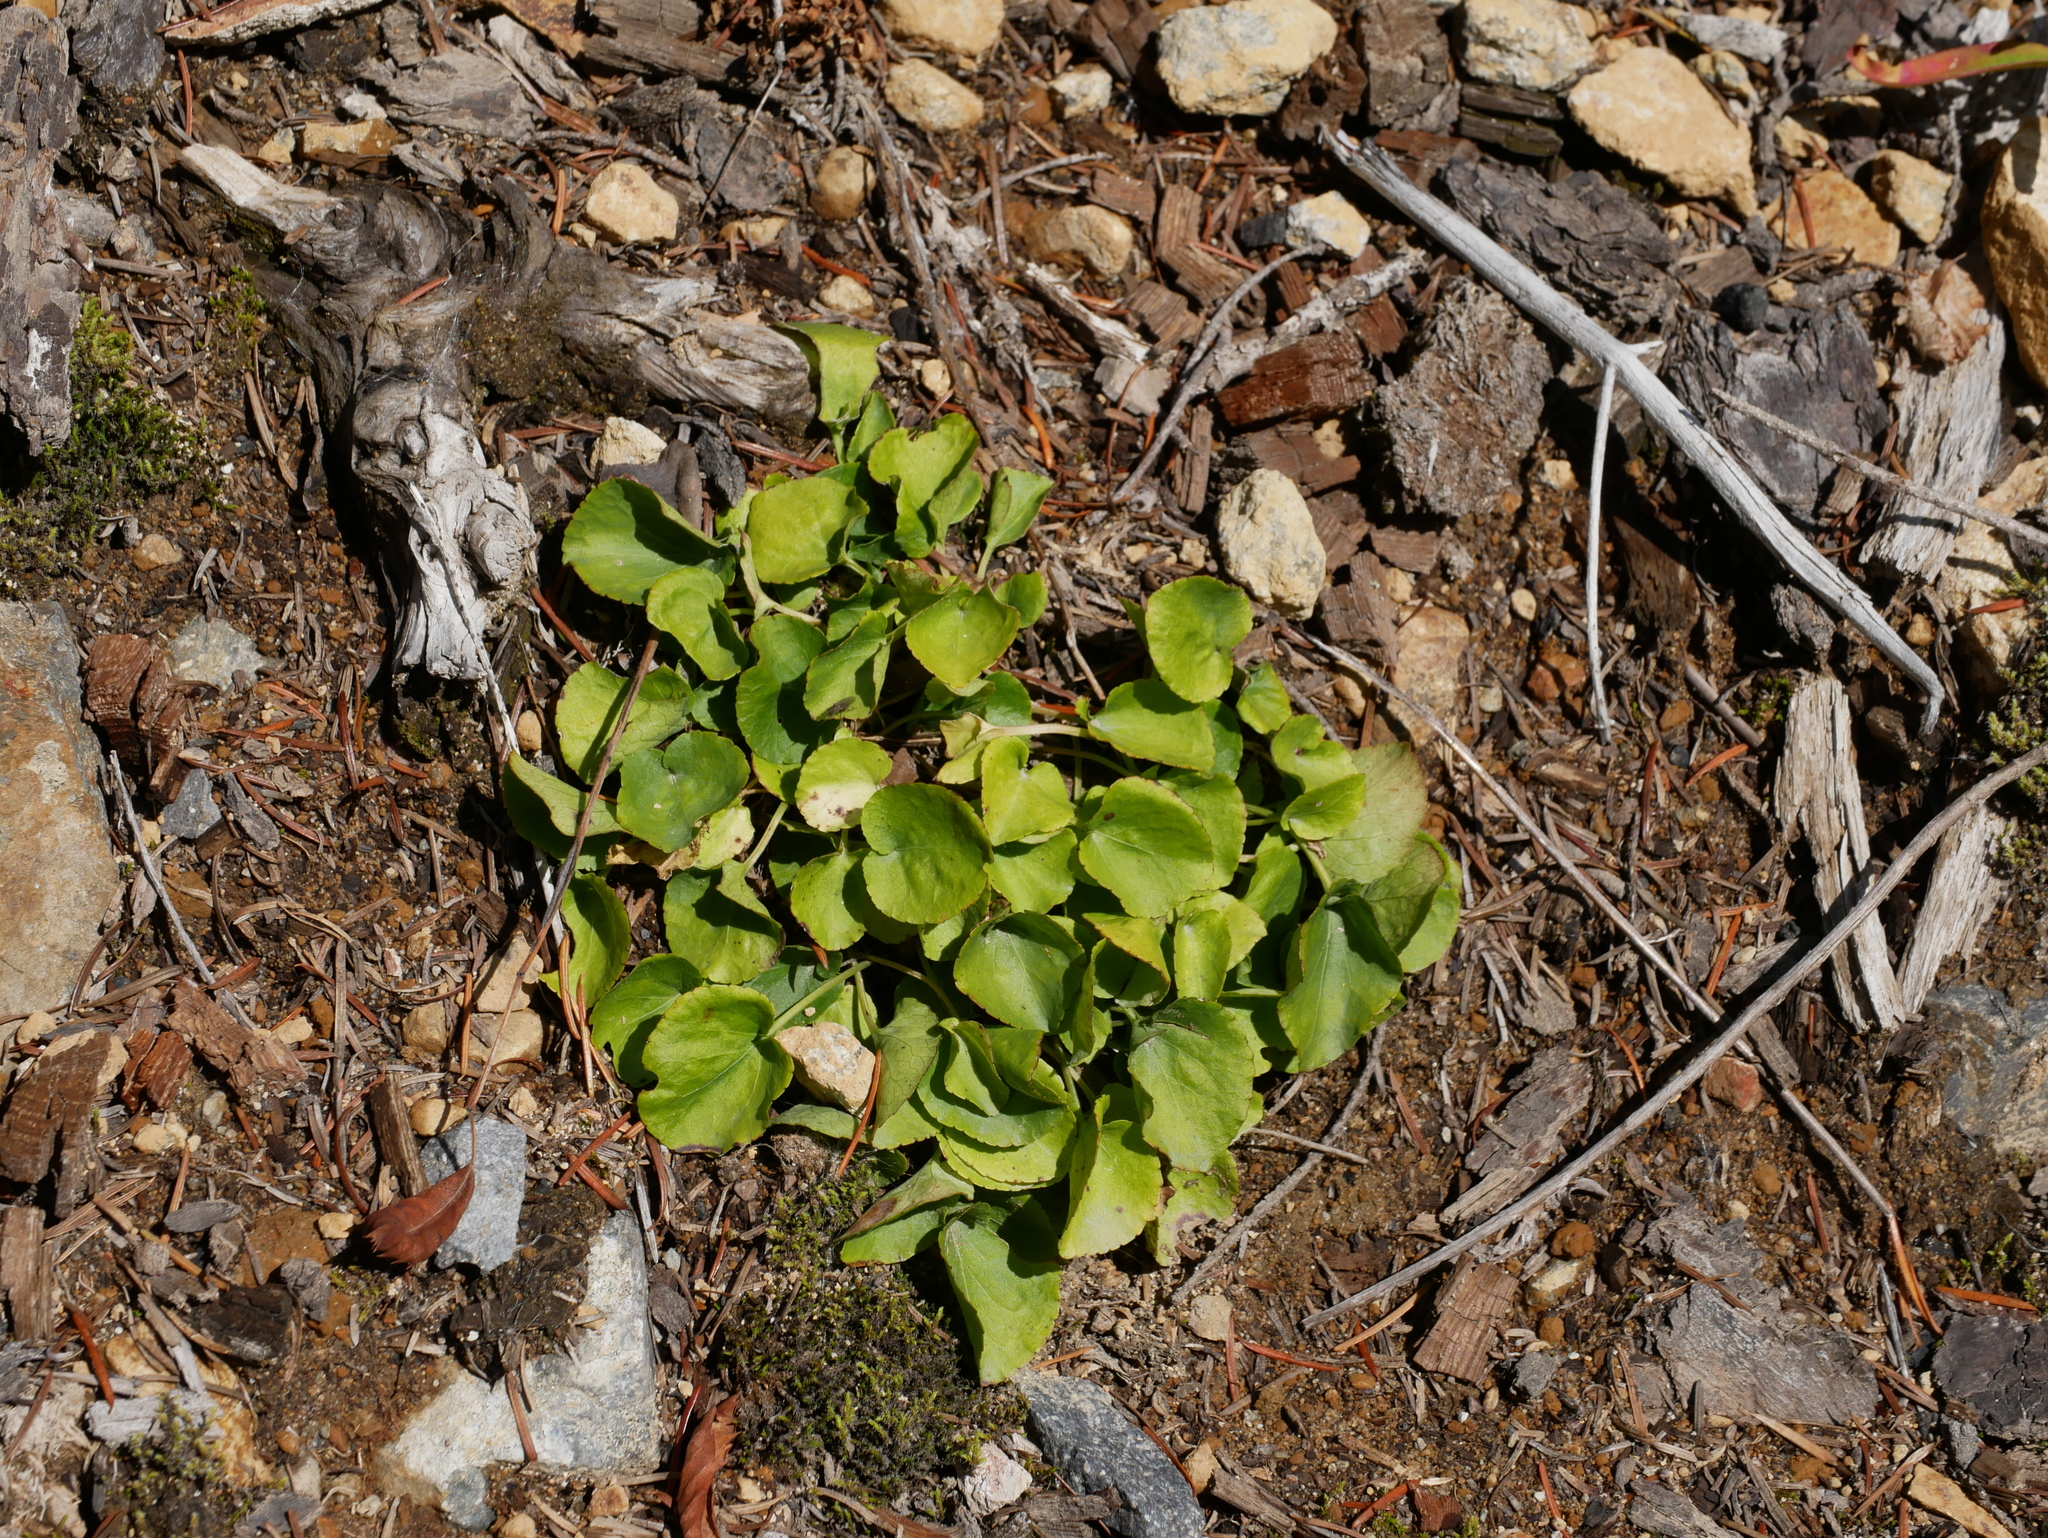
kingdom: Plantae
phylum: Tracheophyta
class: Magnoliopsida
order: Malpighiales
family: Violaceae
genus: Viola
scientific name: Viola sempervirens
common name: Evergreen violet
